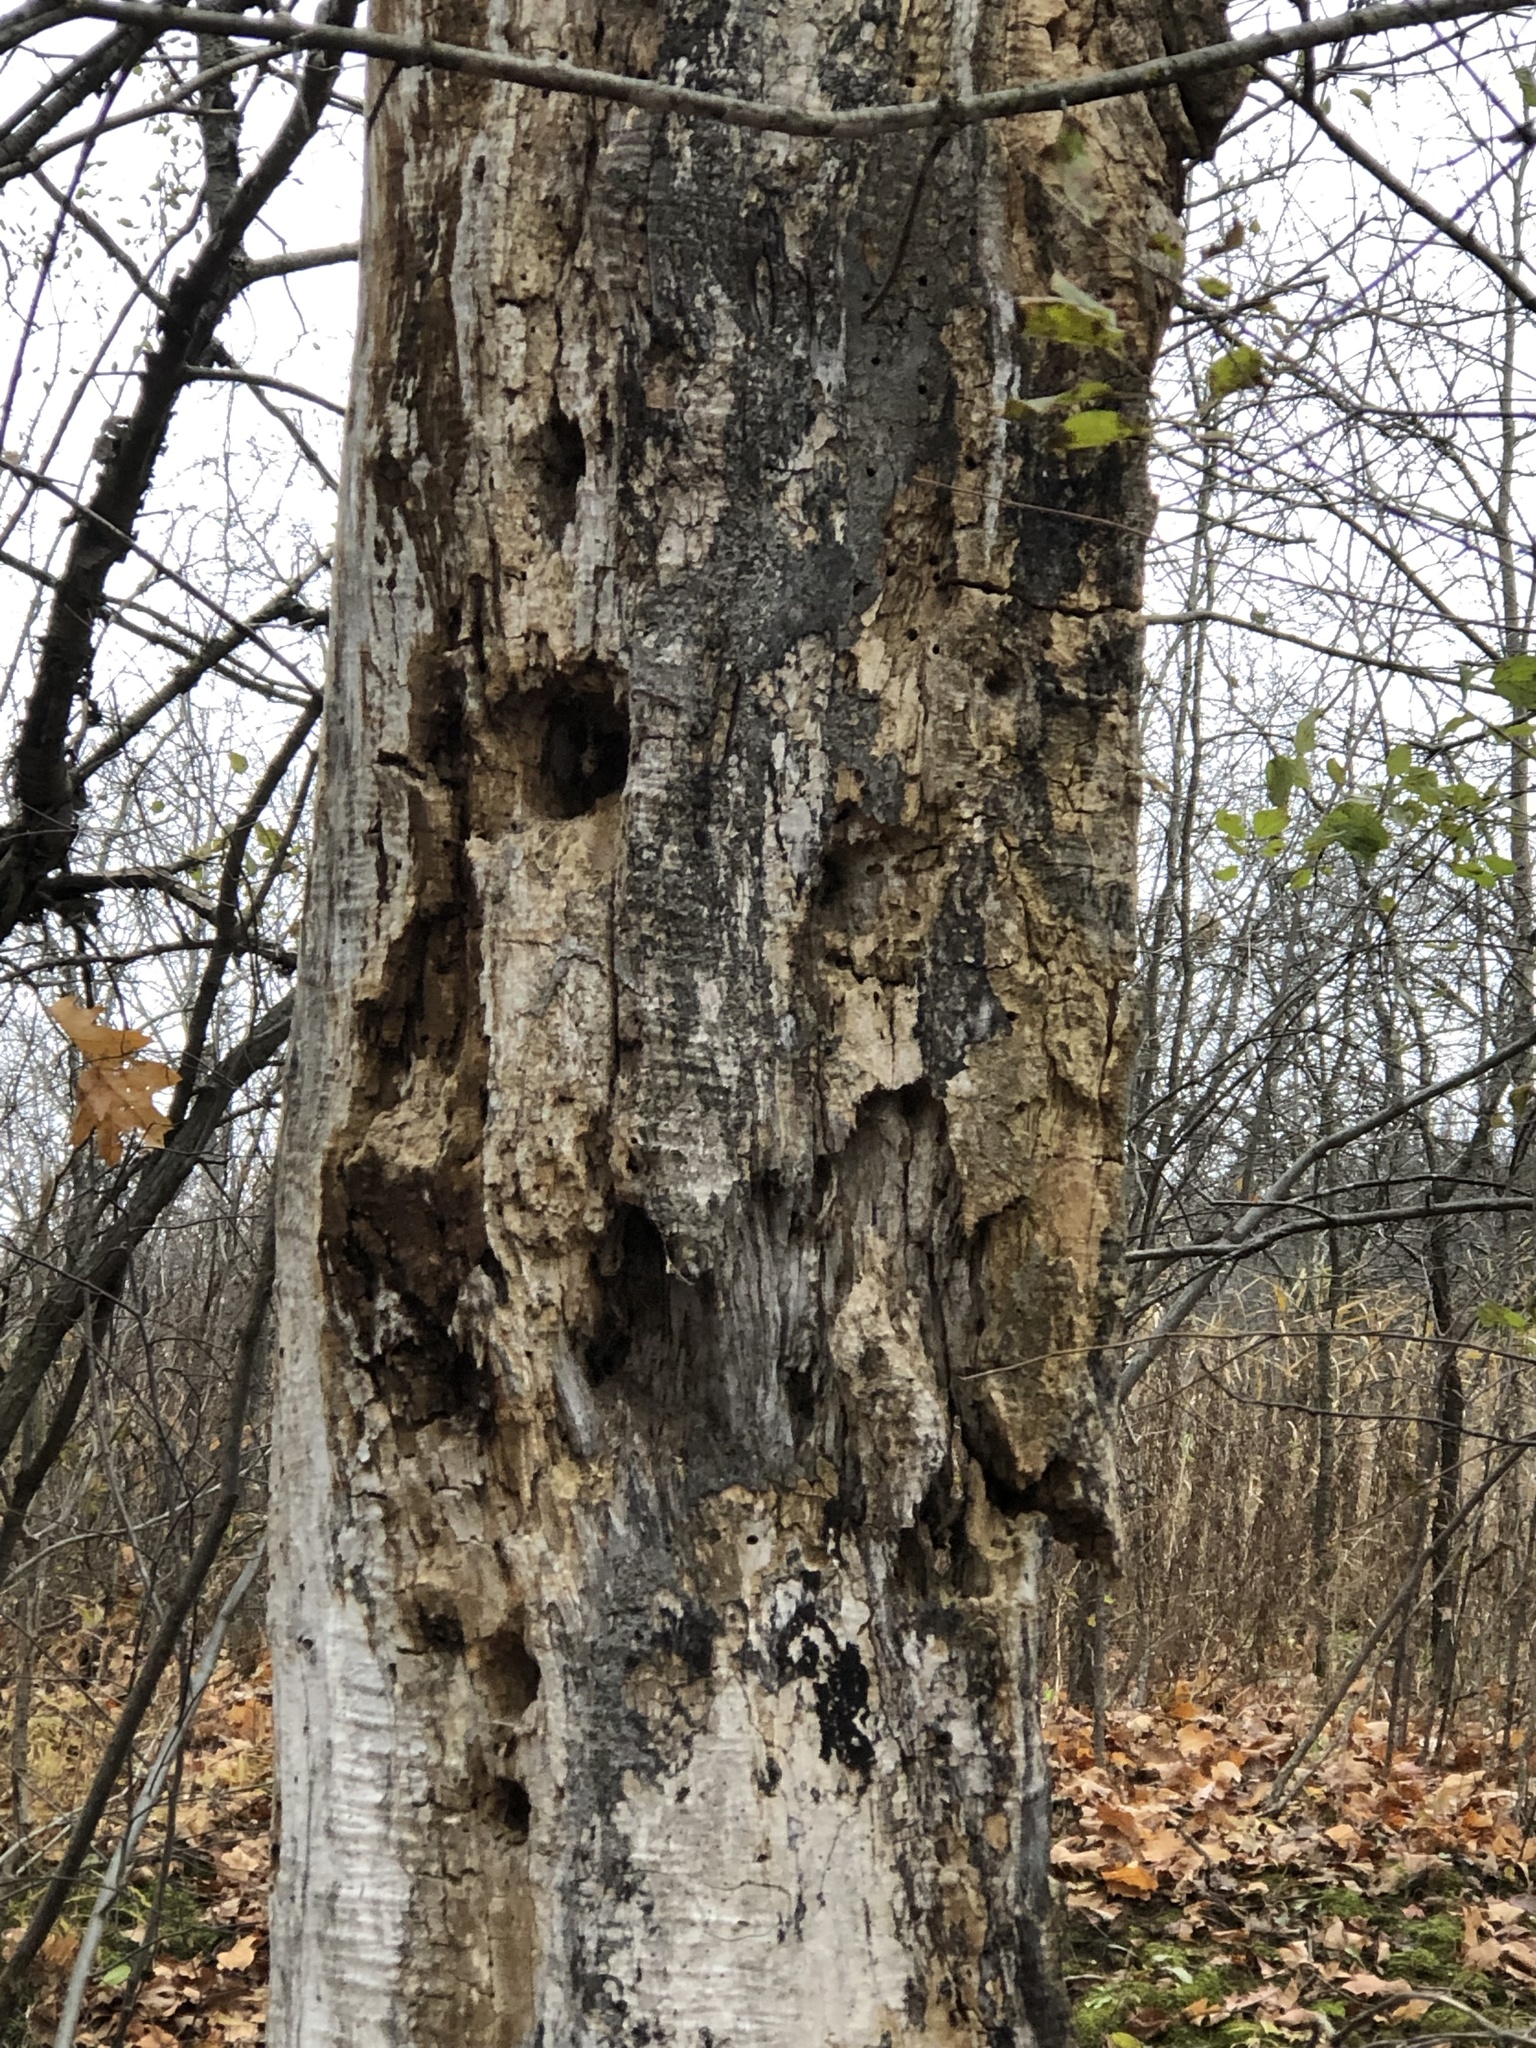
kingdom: Animalia
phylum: Chordata
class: Aves
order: Piciformes
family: Picidae
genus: Dryocopus
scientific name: Dryocopus pileatus
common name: Pileated woodpecker
